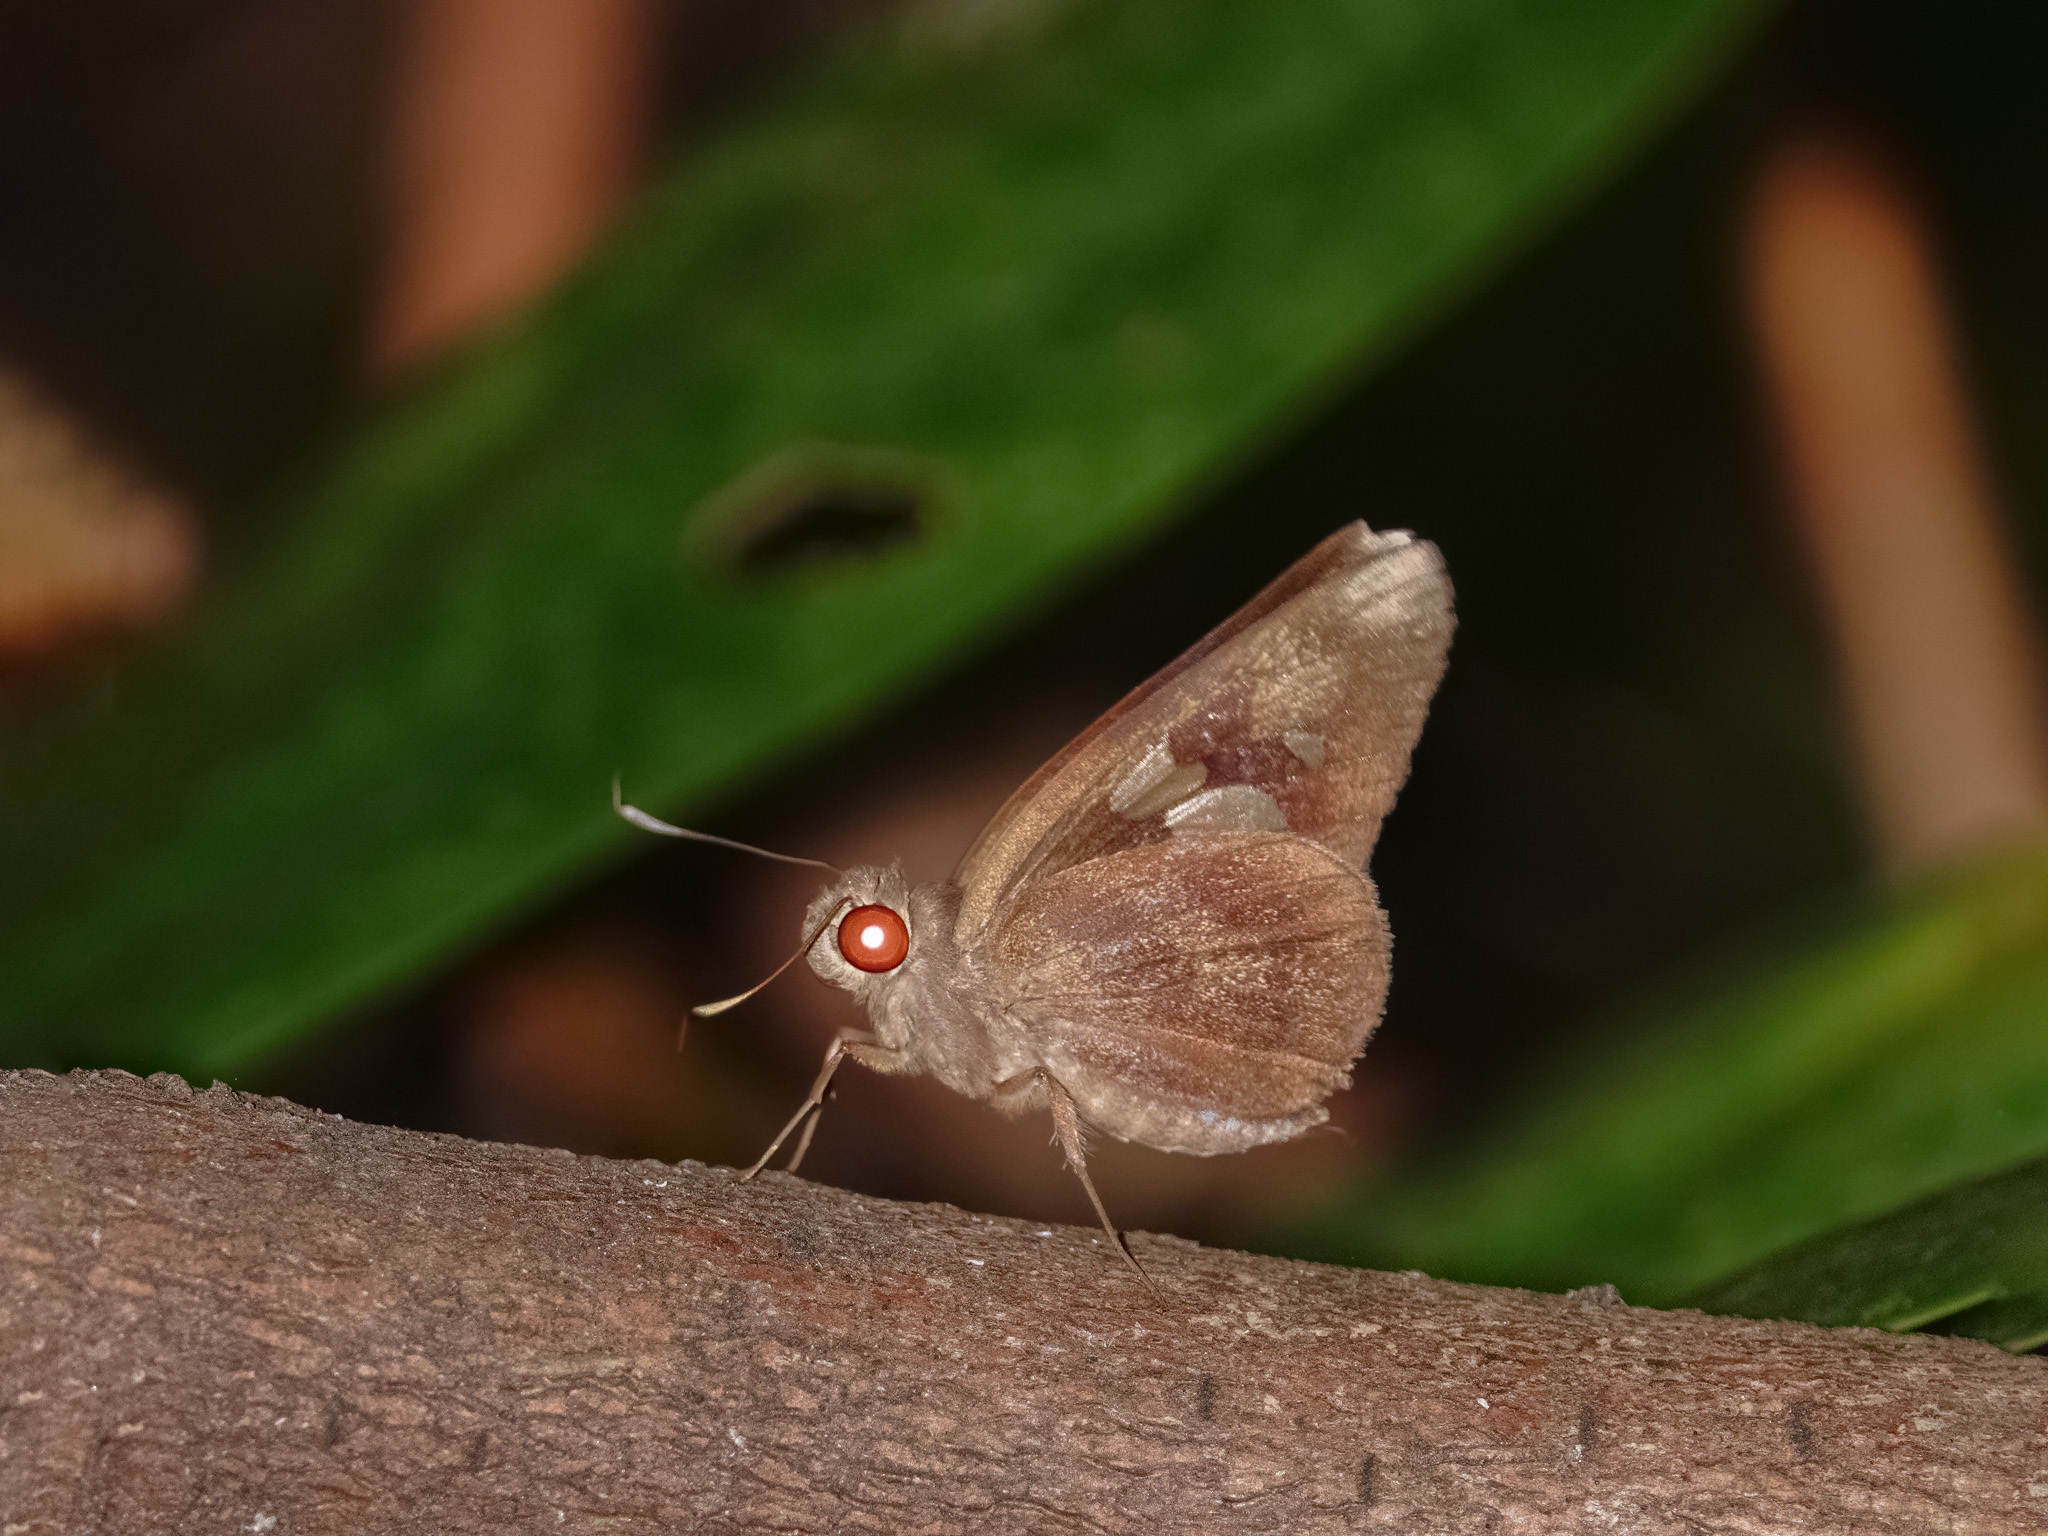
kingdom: Animalia
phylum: Arthropoda
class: Insecta
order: Lepidoptera
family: Hesperiidae
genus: Erionota
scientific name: Erionota acroleucus
